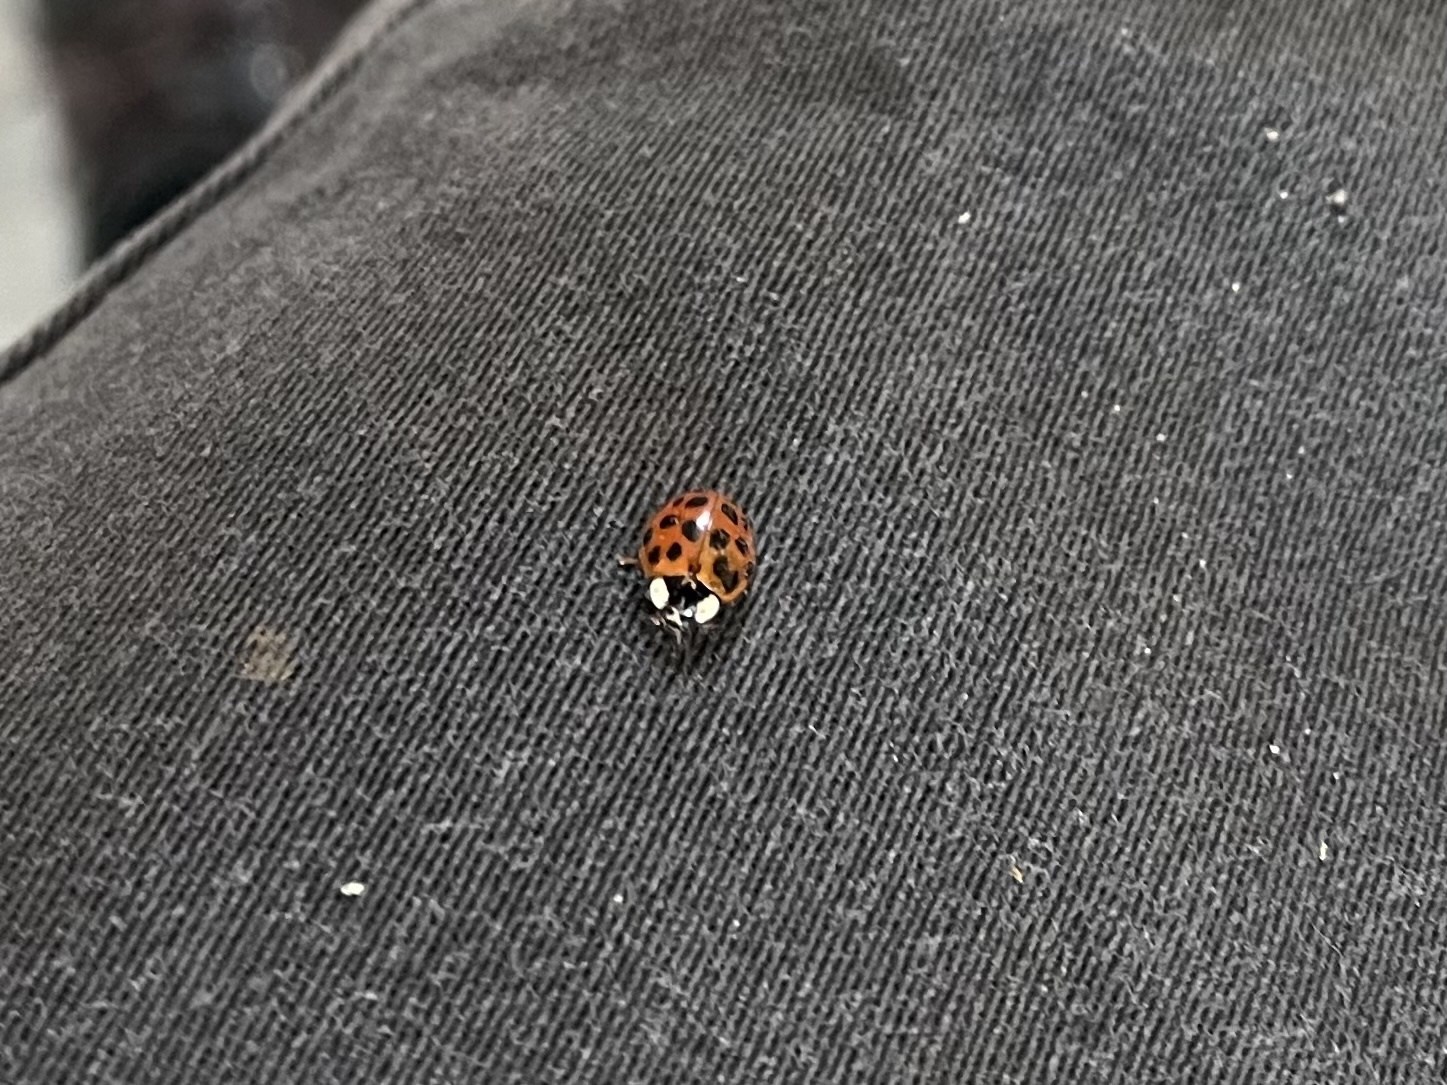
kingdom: Animalia
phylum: Arthropoda
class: Insecta
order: Coleoptera
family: Coccinellidae
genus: Harmonia
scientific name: Harmonia axyridis
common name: Harlequin ladybird
